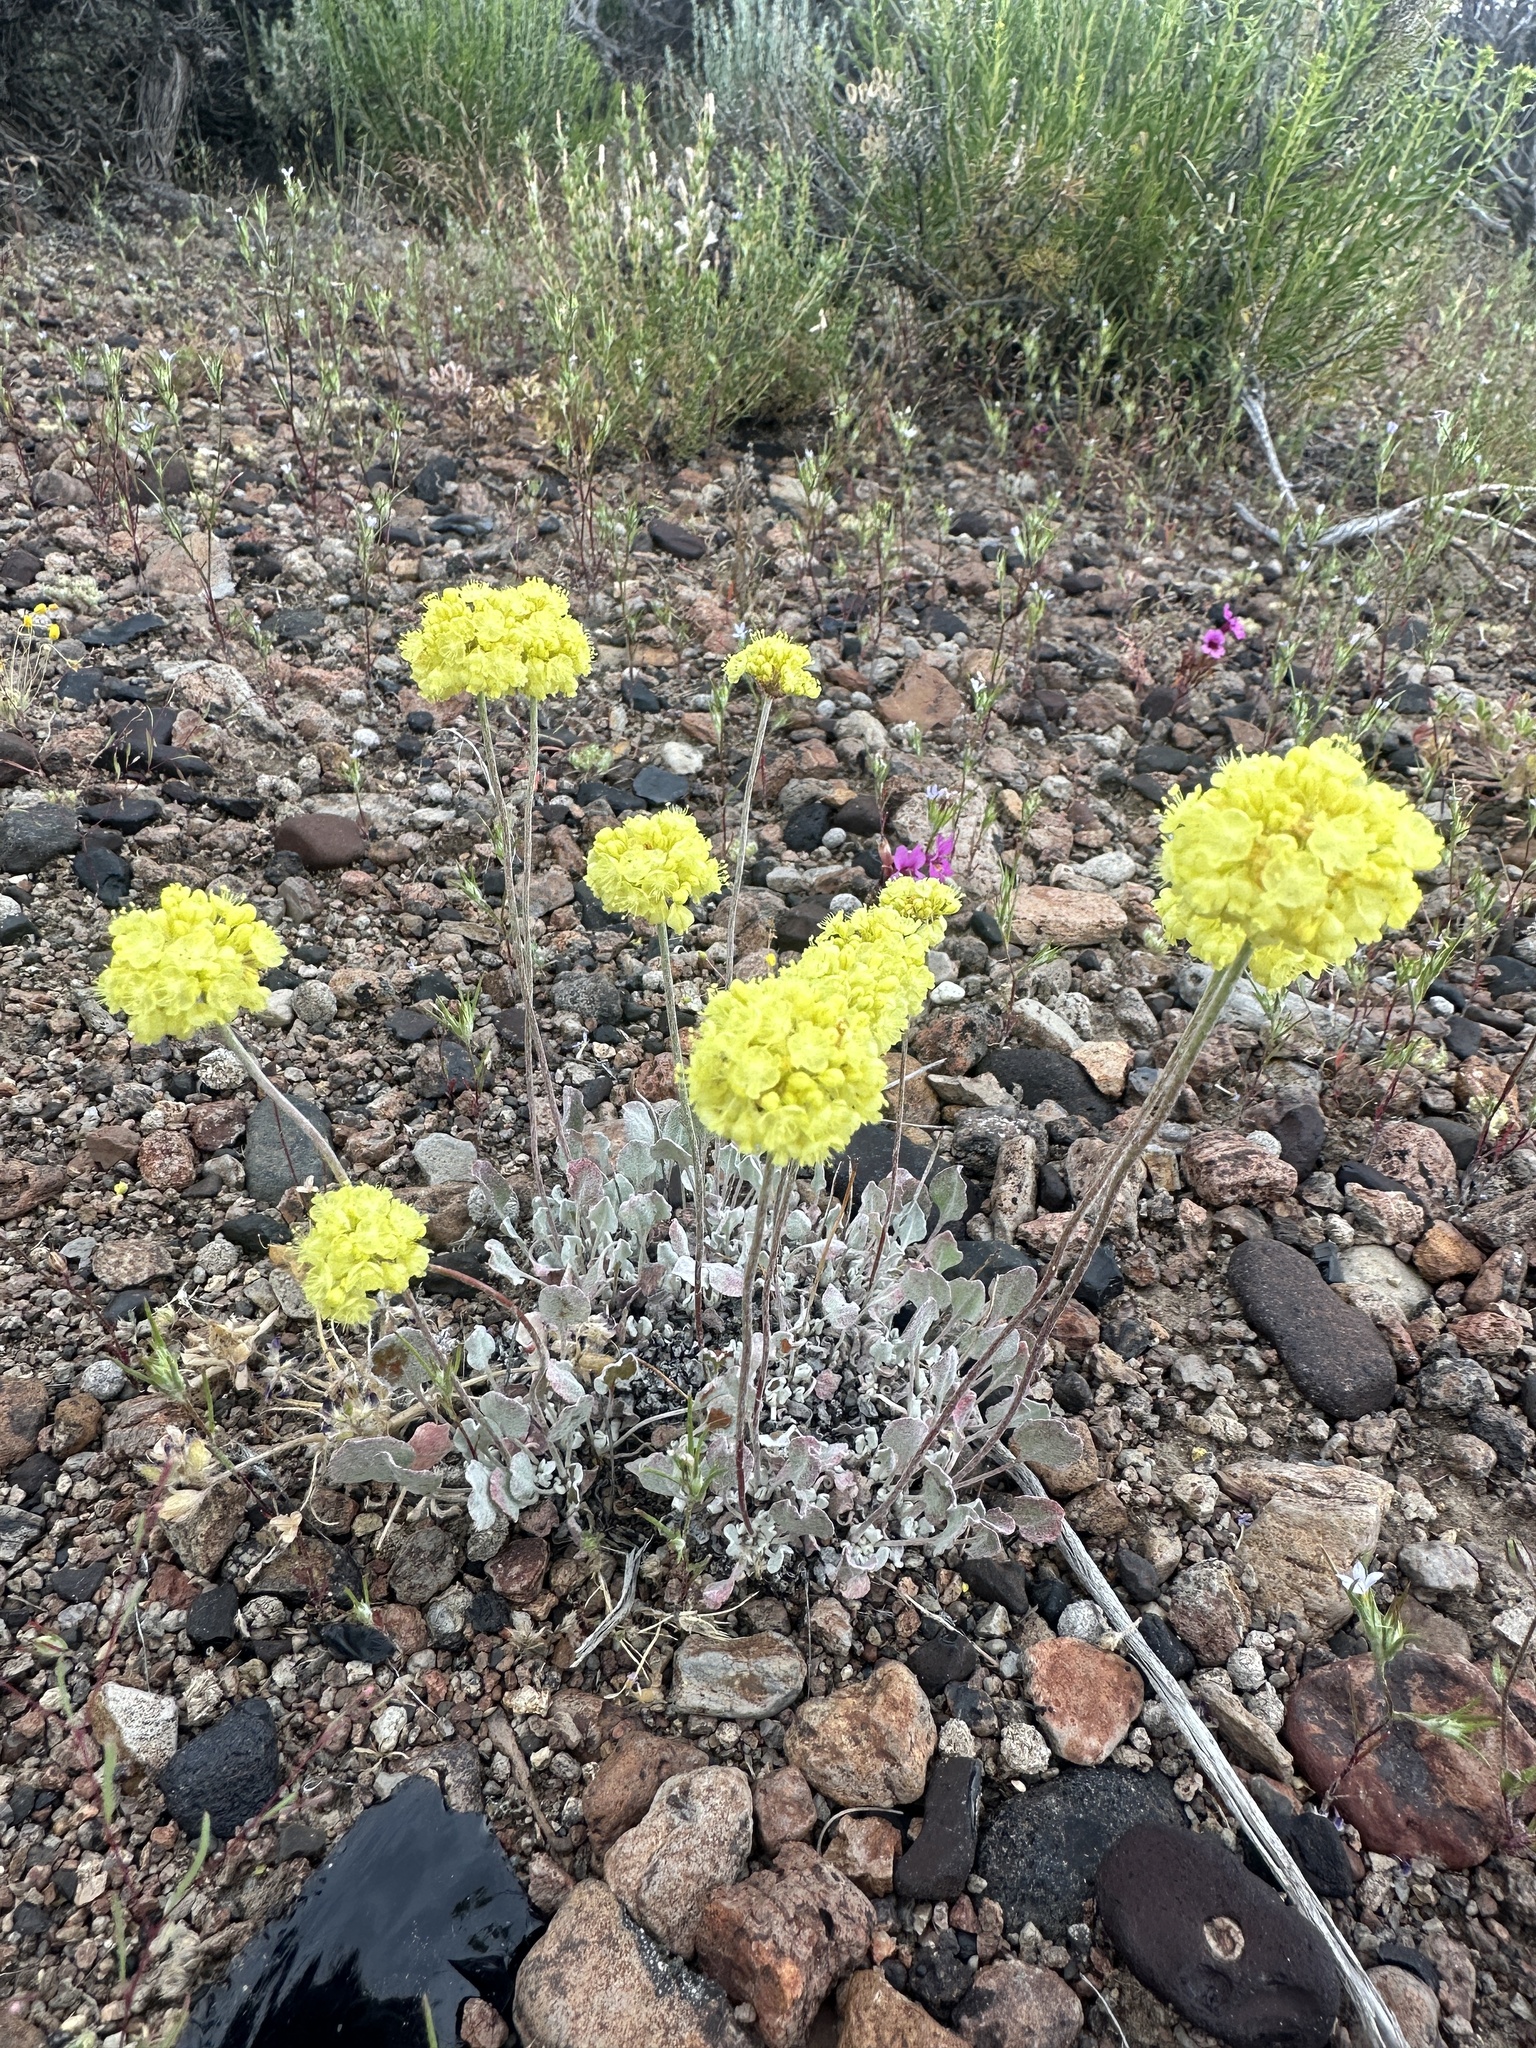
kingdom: Plantae
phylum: Tracheophyta
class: Magnoliopsida
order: Caryophyllales
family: Polygonaceae
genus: Eriogonum
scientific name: Eriogonum ovalifolium
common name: Cushion buckwheat
